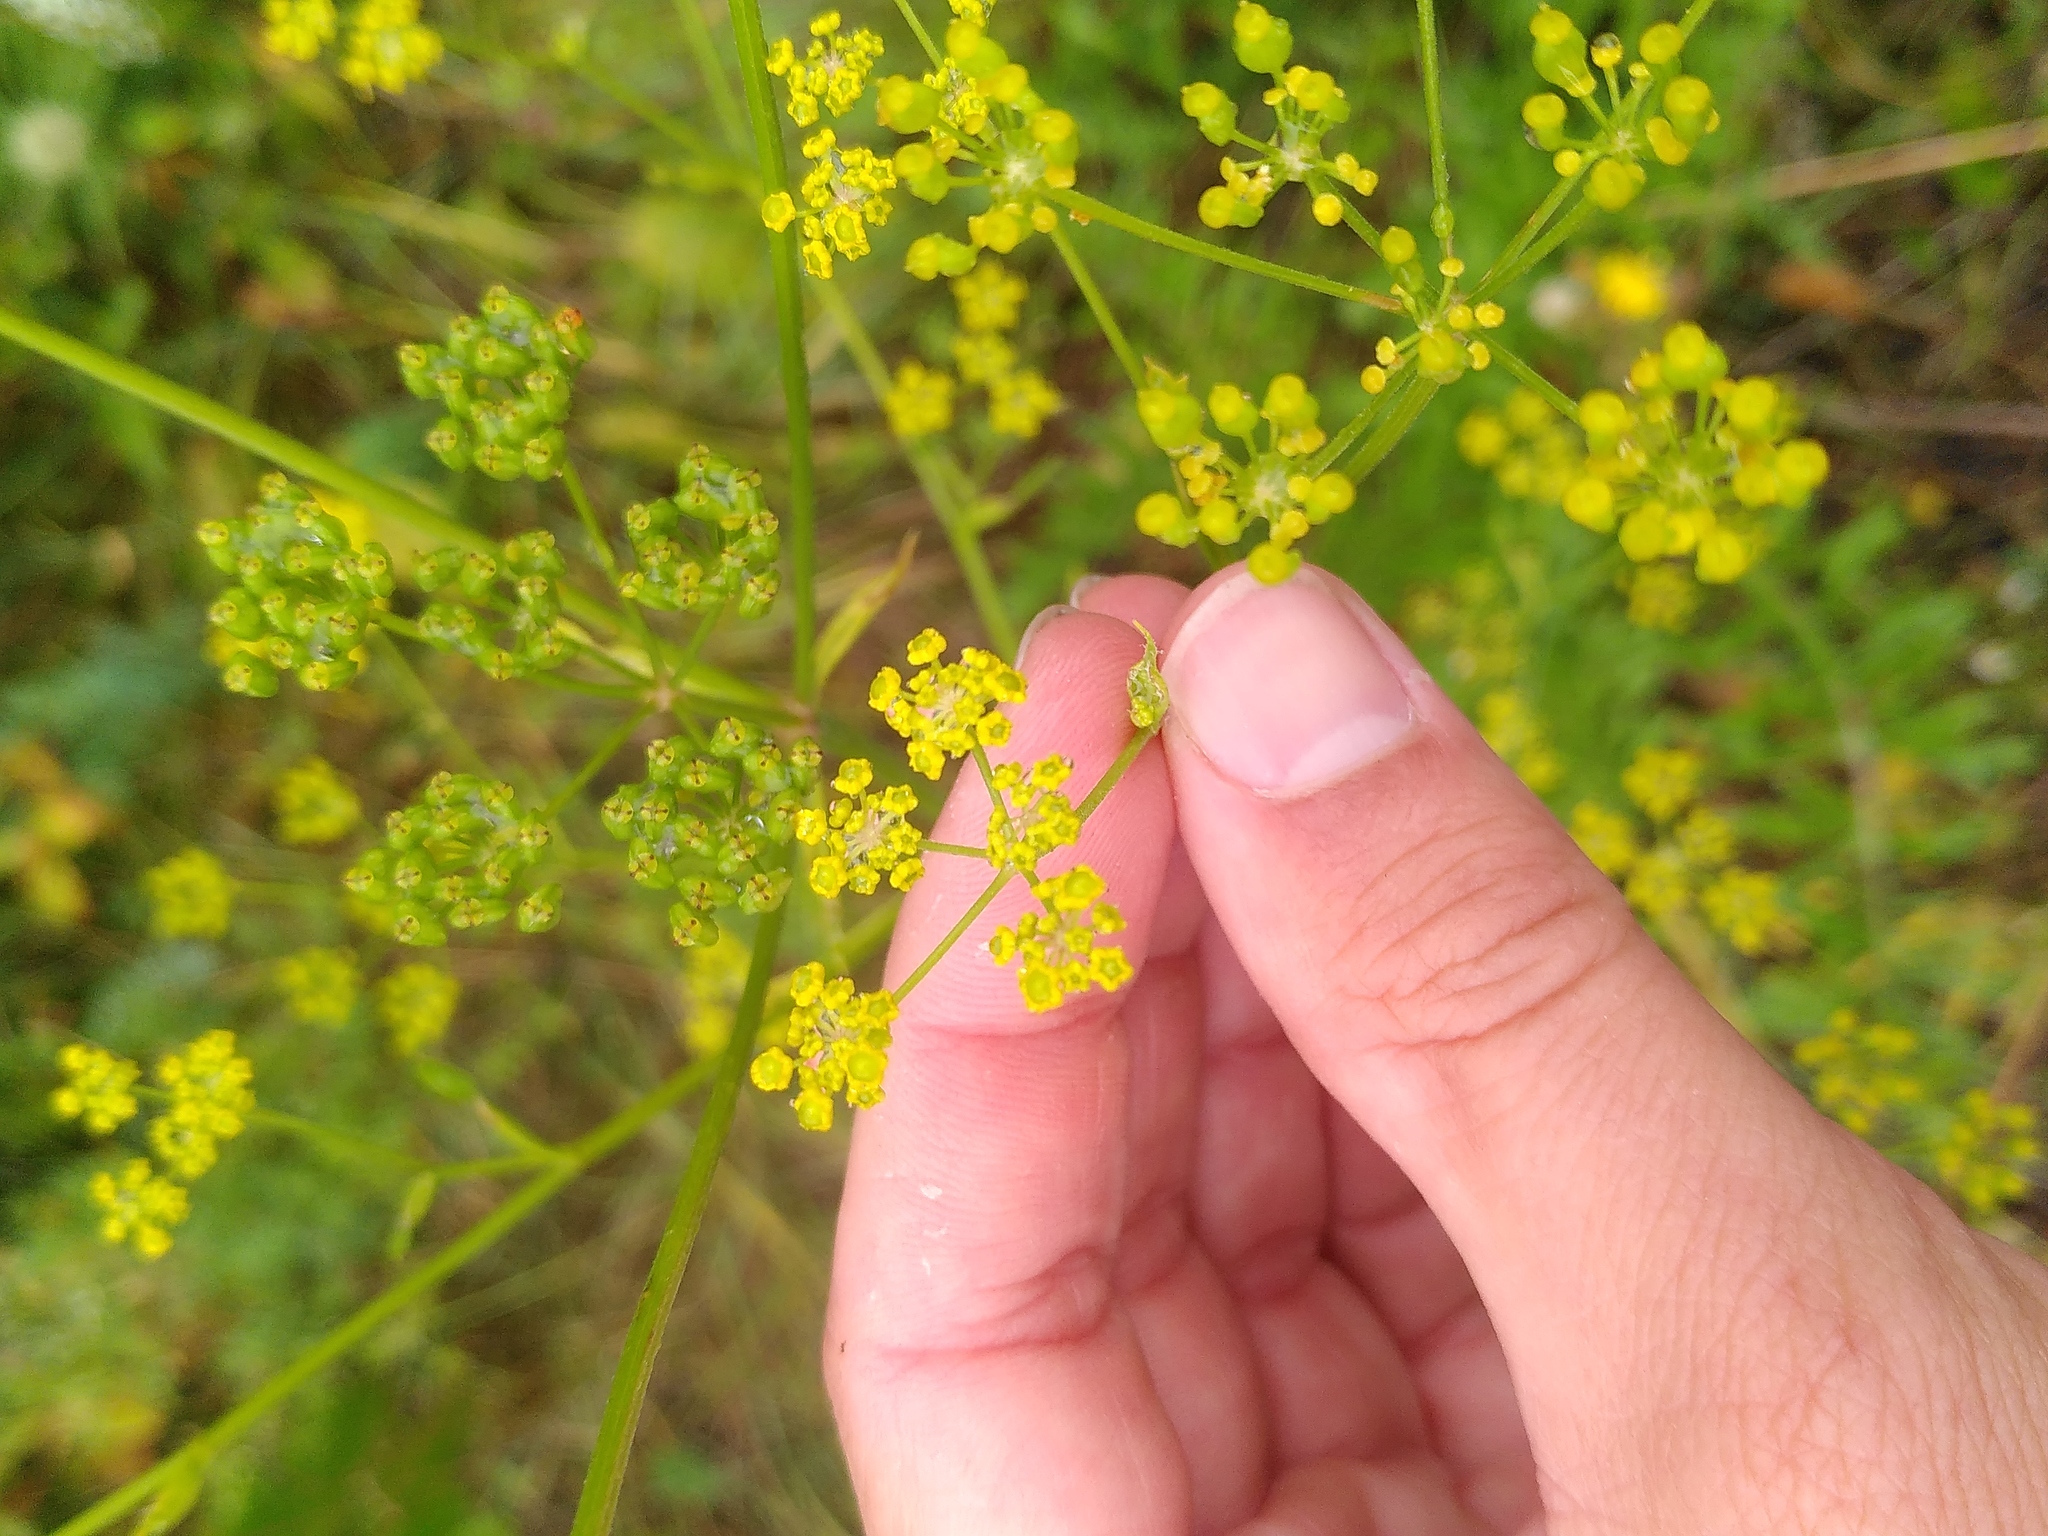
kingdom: Plantae
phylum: Tracheophyta
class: Magnoliopsida
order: Apiales
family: Apiaceae
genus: Pastinaca
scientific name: Pastinaca sativa
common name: Wild parsnip
